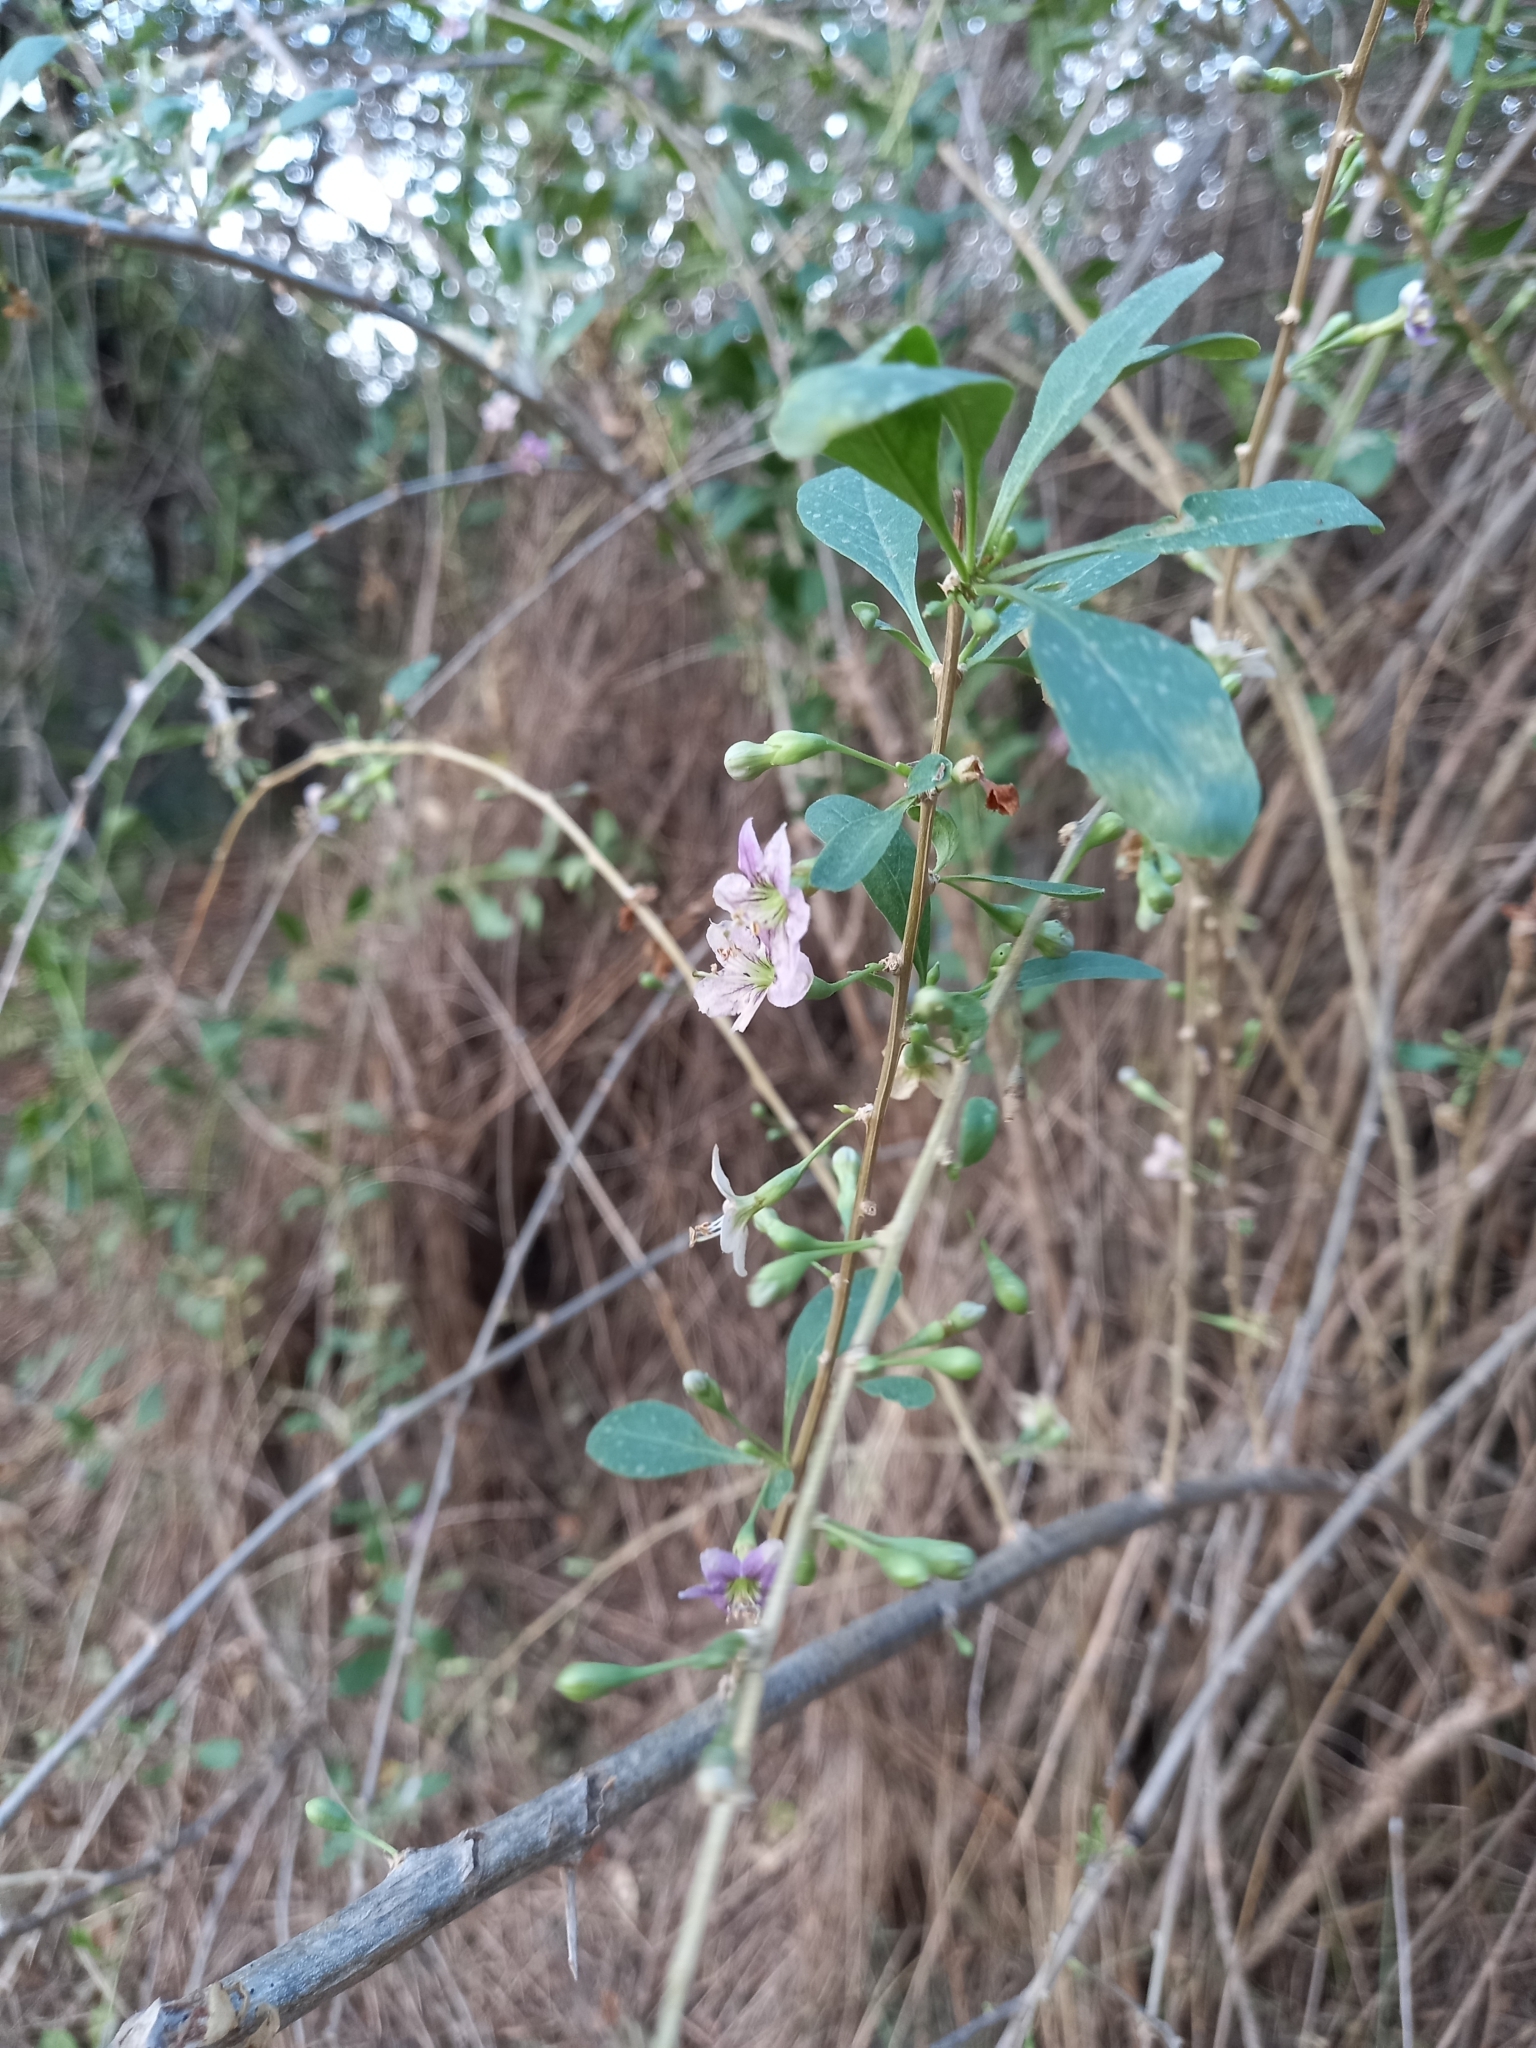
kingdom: Plantae
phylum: Tracheophyta
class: Magnoliopsida
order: Solanales
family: Solanaceae
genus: Lycium
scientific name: Lycium barbarum
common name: Duke of argyll's teaplant
